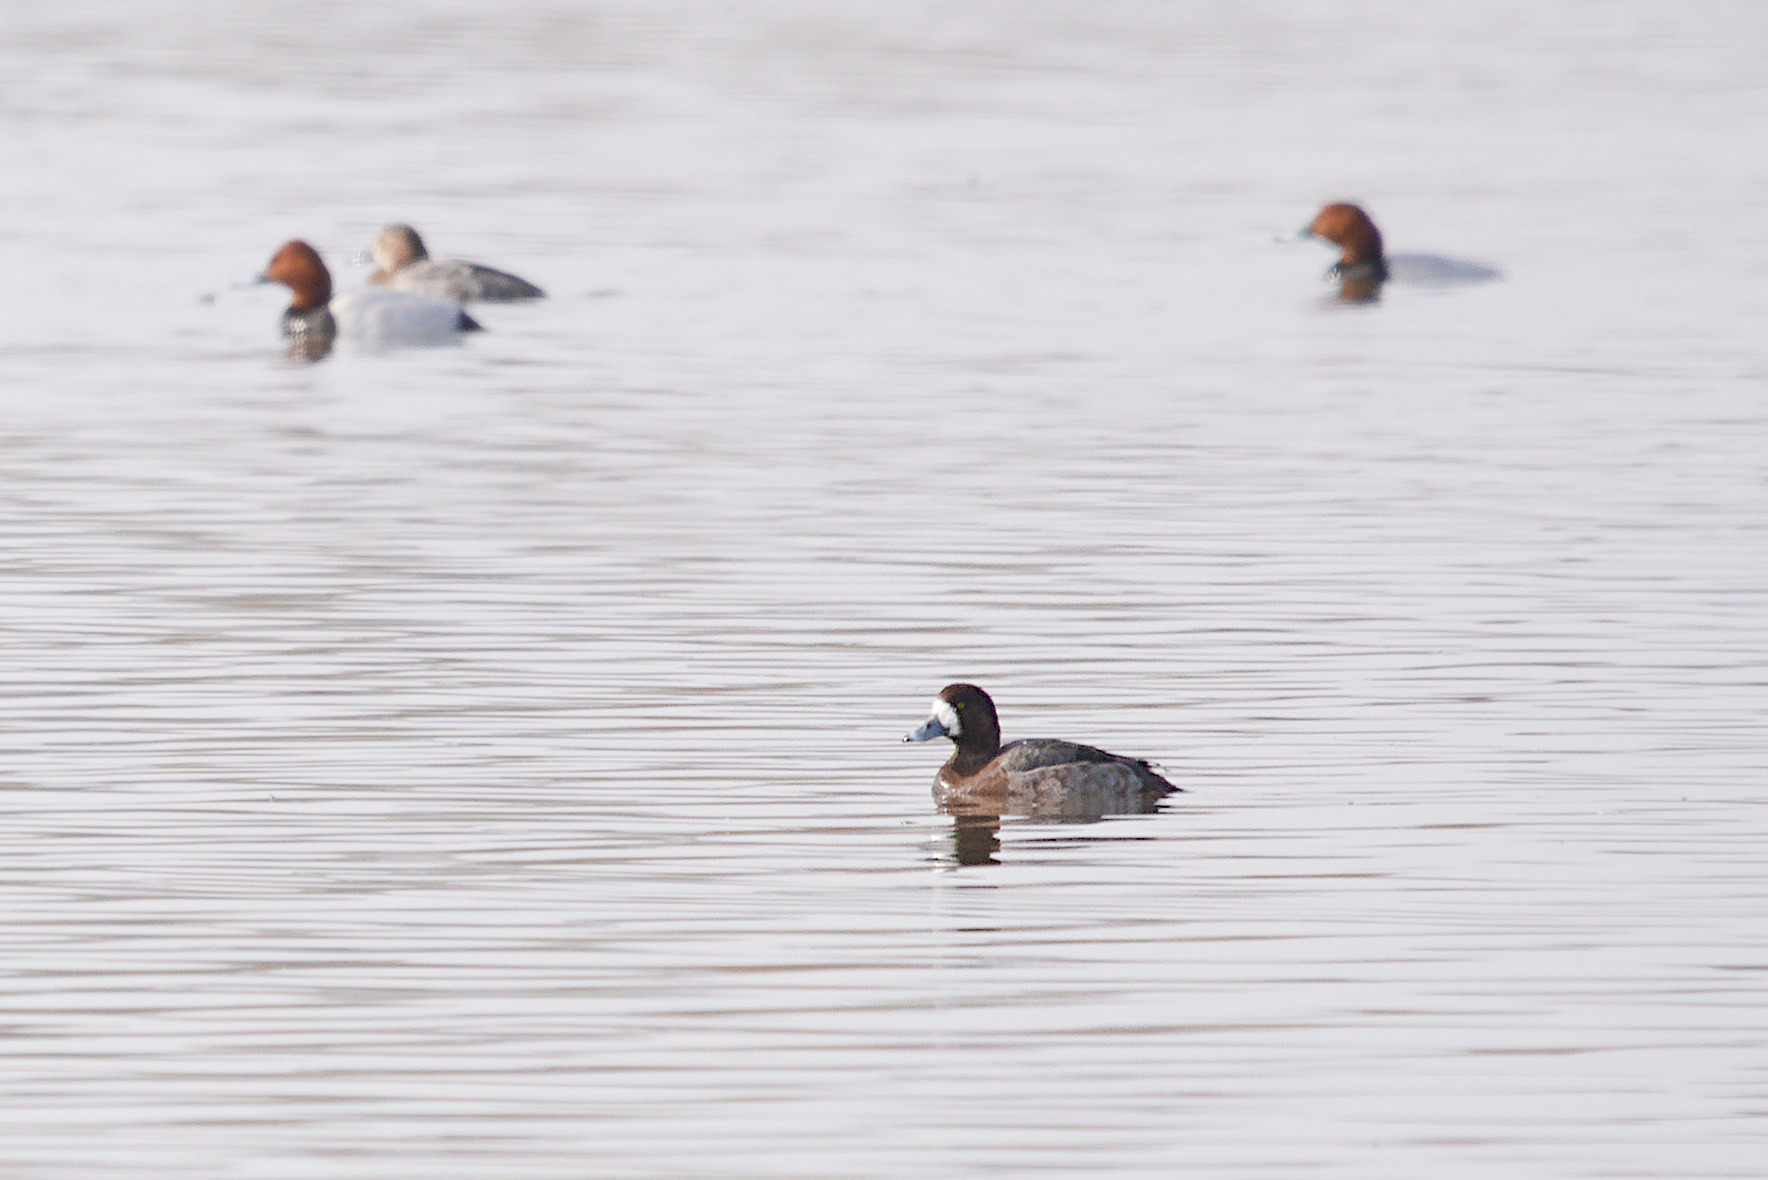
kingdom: Animalia
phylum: Chordata
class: Aves
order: Anseriformes
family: Anatidae
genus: Aythya
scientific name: Aythya marila
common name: Greater scaup
